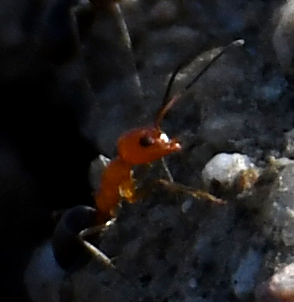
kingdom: Animalia
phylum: Arthropoda
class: Insecta
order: Hymenoptera
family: Formicidae
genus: Dorymyrmex
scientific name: Dorymyrmex bicolor
